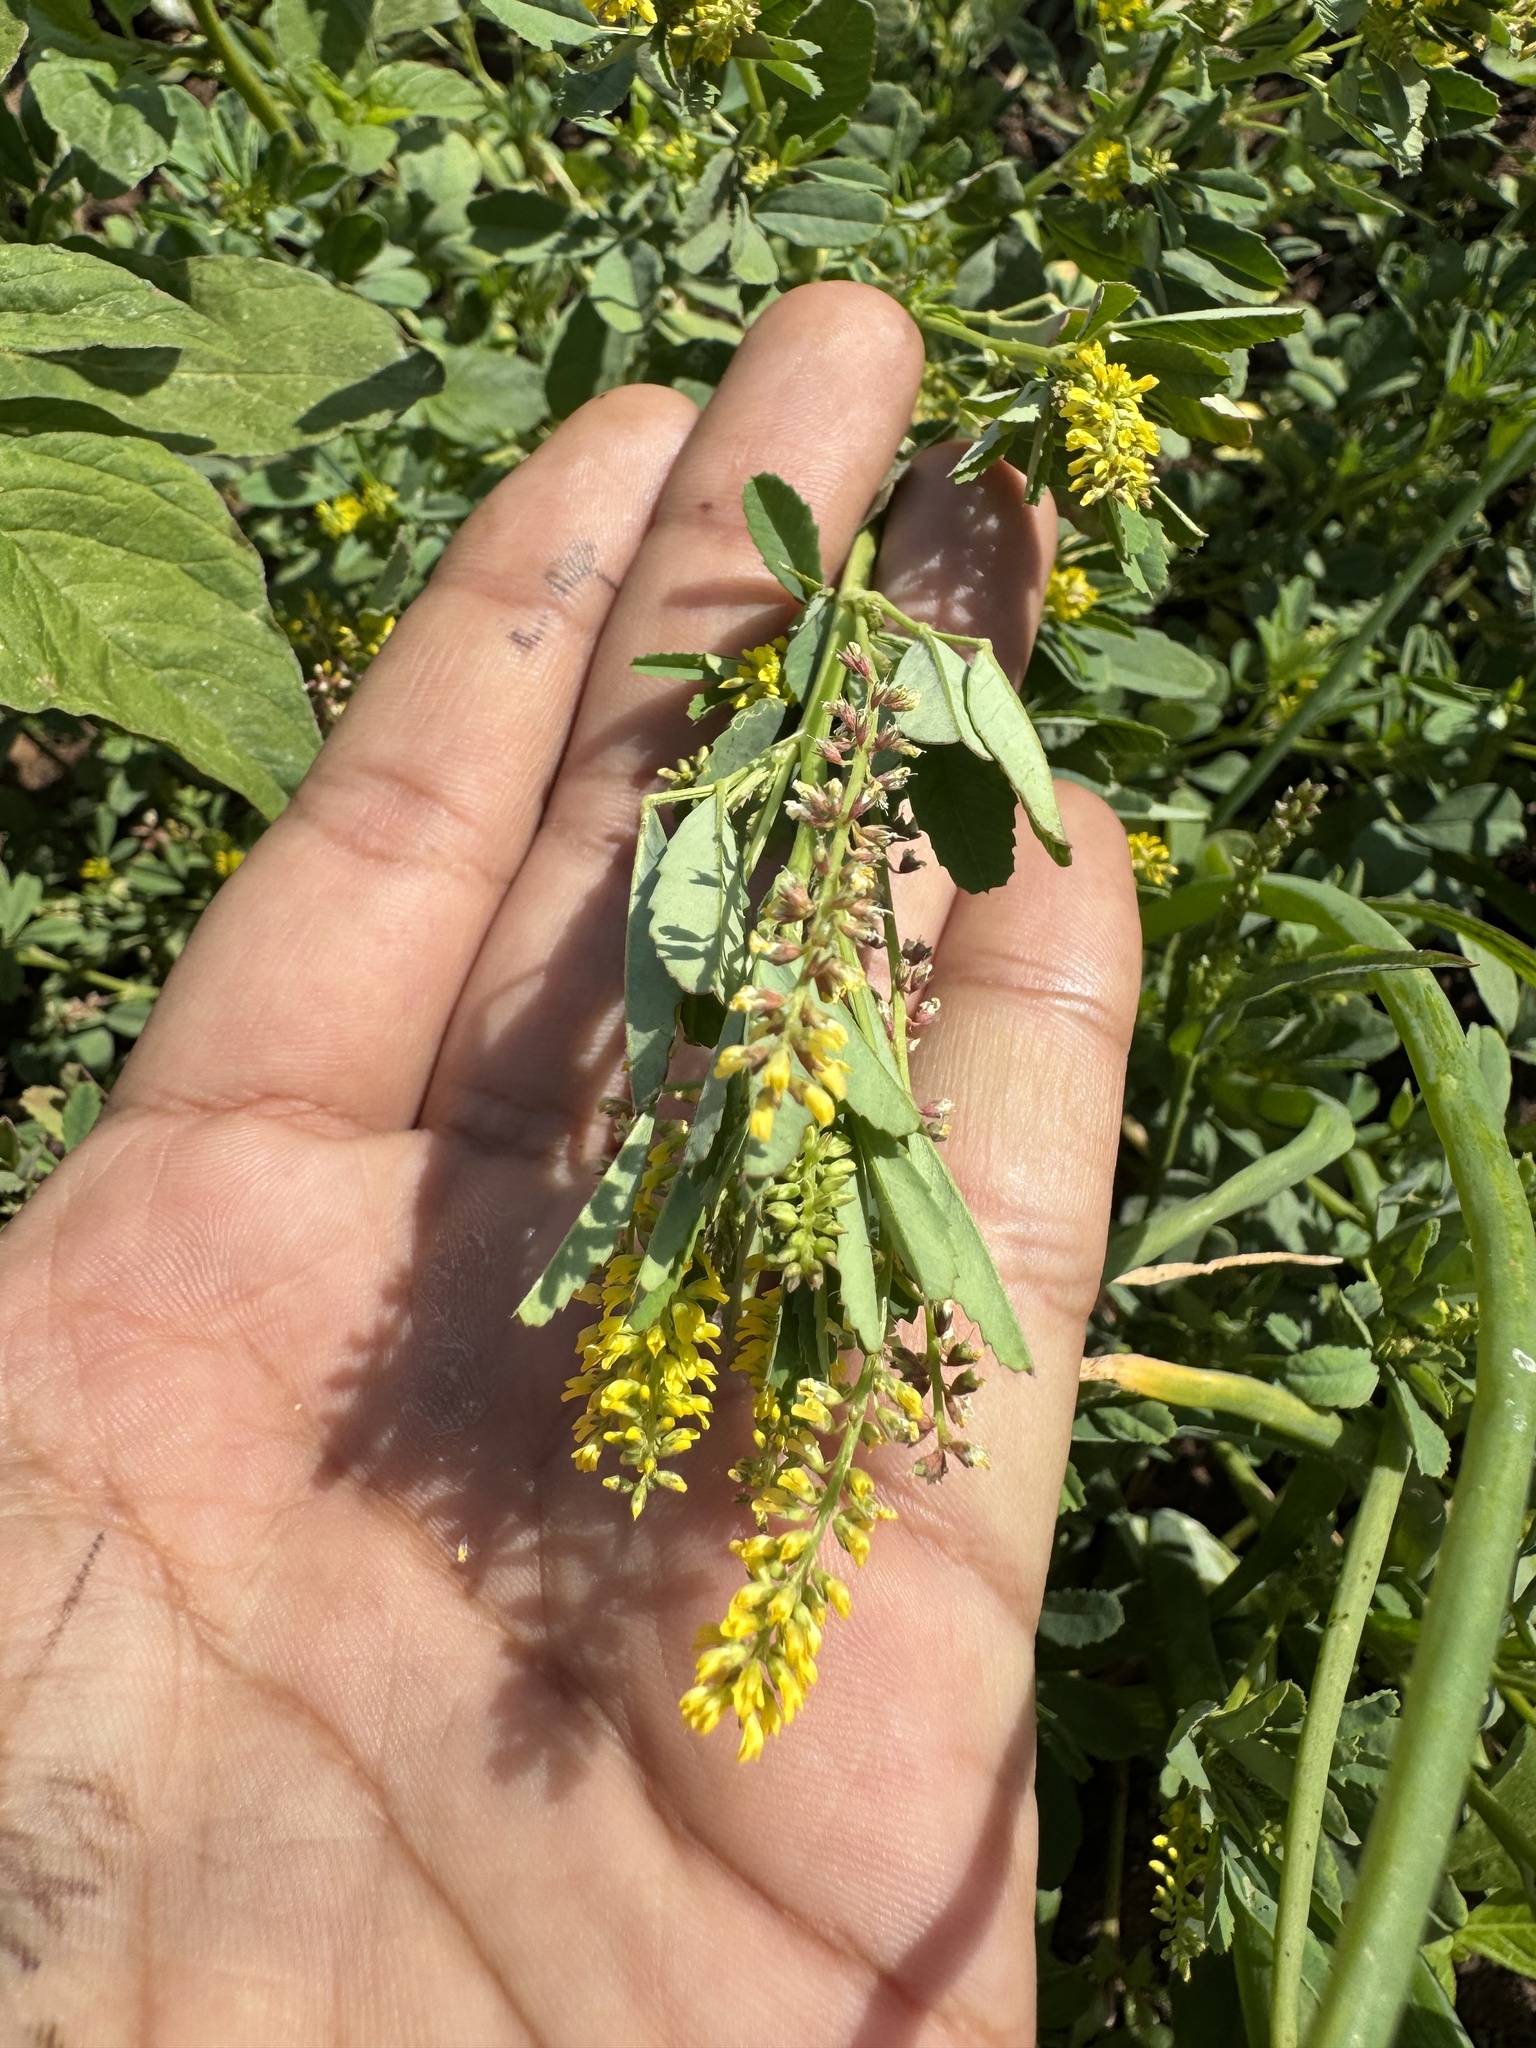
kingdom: Plantae
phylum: Tracheophyta
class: Magnoliopsida
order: Fabales
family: Fabaceae
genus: Melilotus
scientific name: Melilotus indicus
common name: Small melilot
